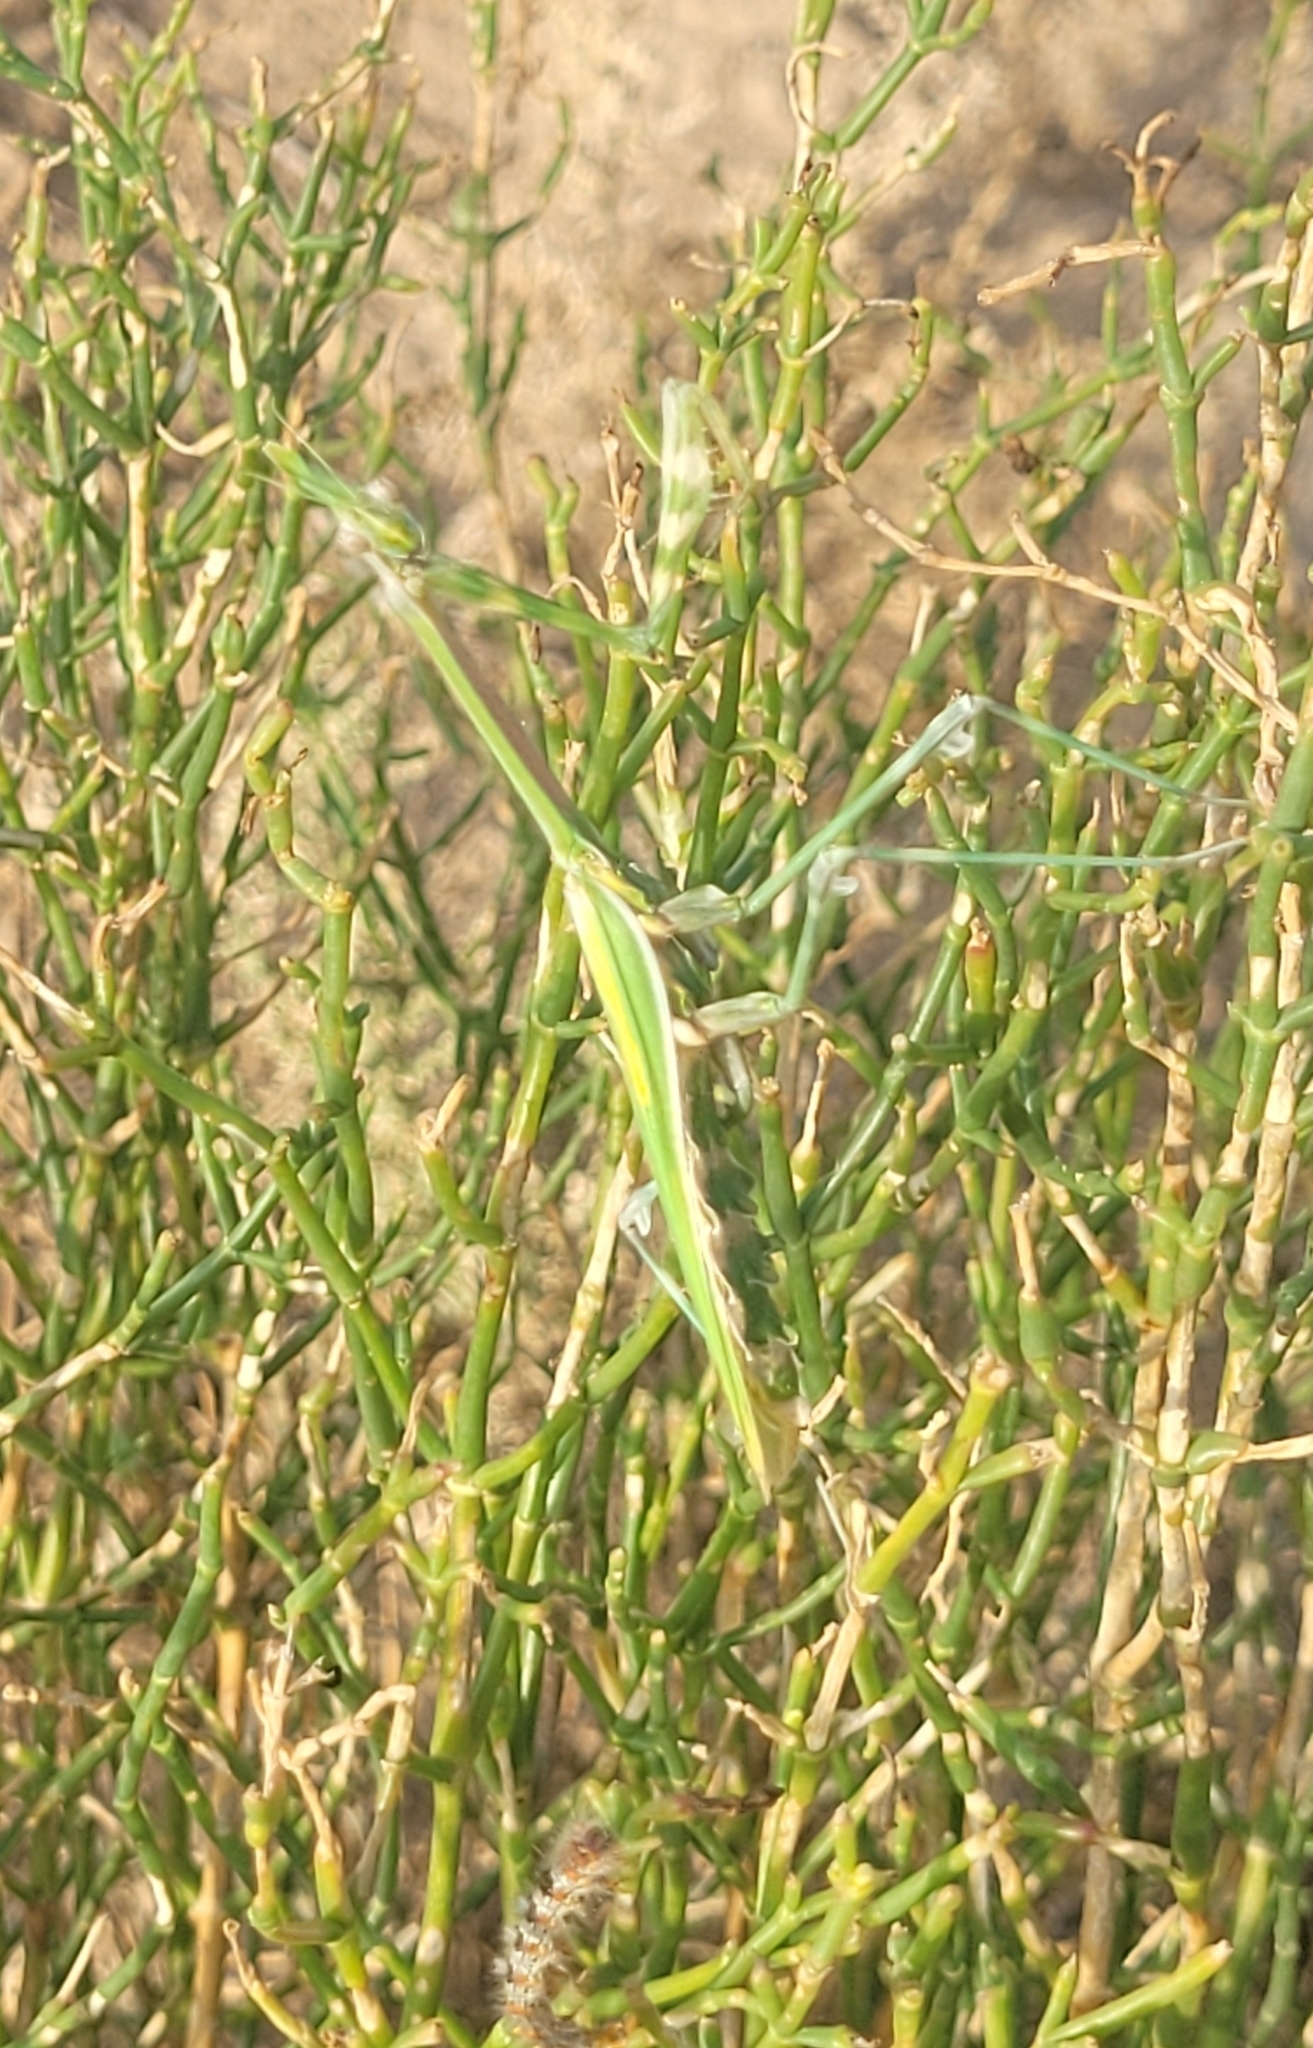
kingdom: Animalia
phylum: Arthropoda
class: Insecta
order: Mantodea
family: Empusidae
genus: Empusa
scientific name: Empusa pennicornis
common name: Conehead mantis
